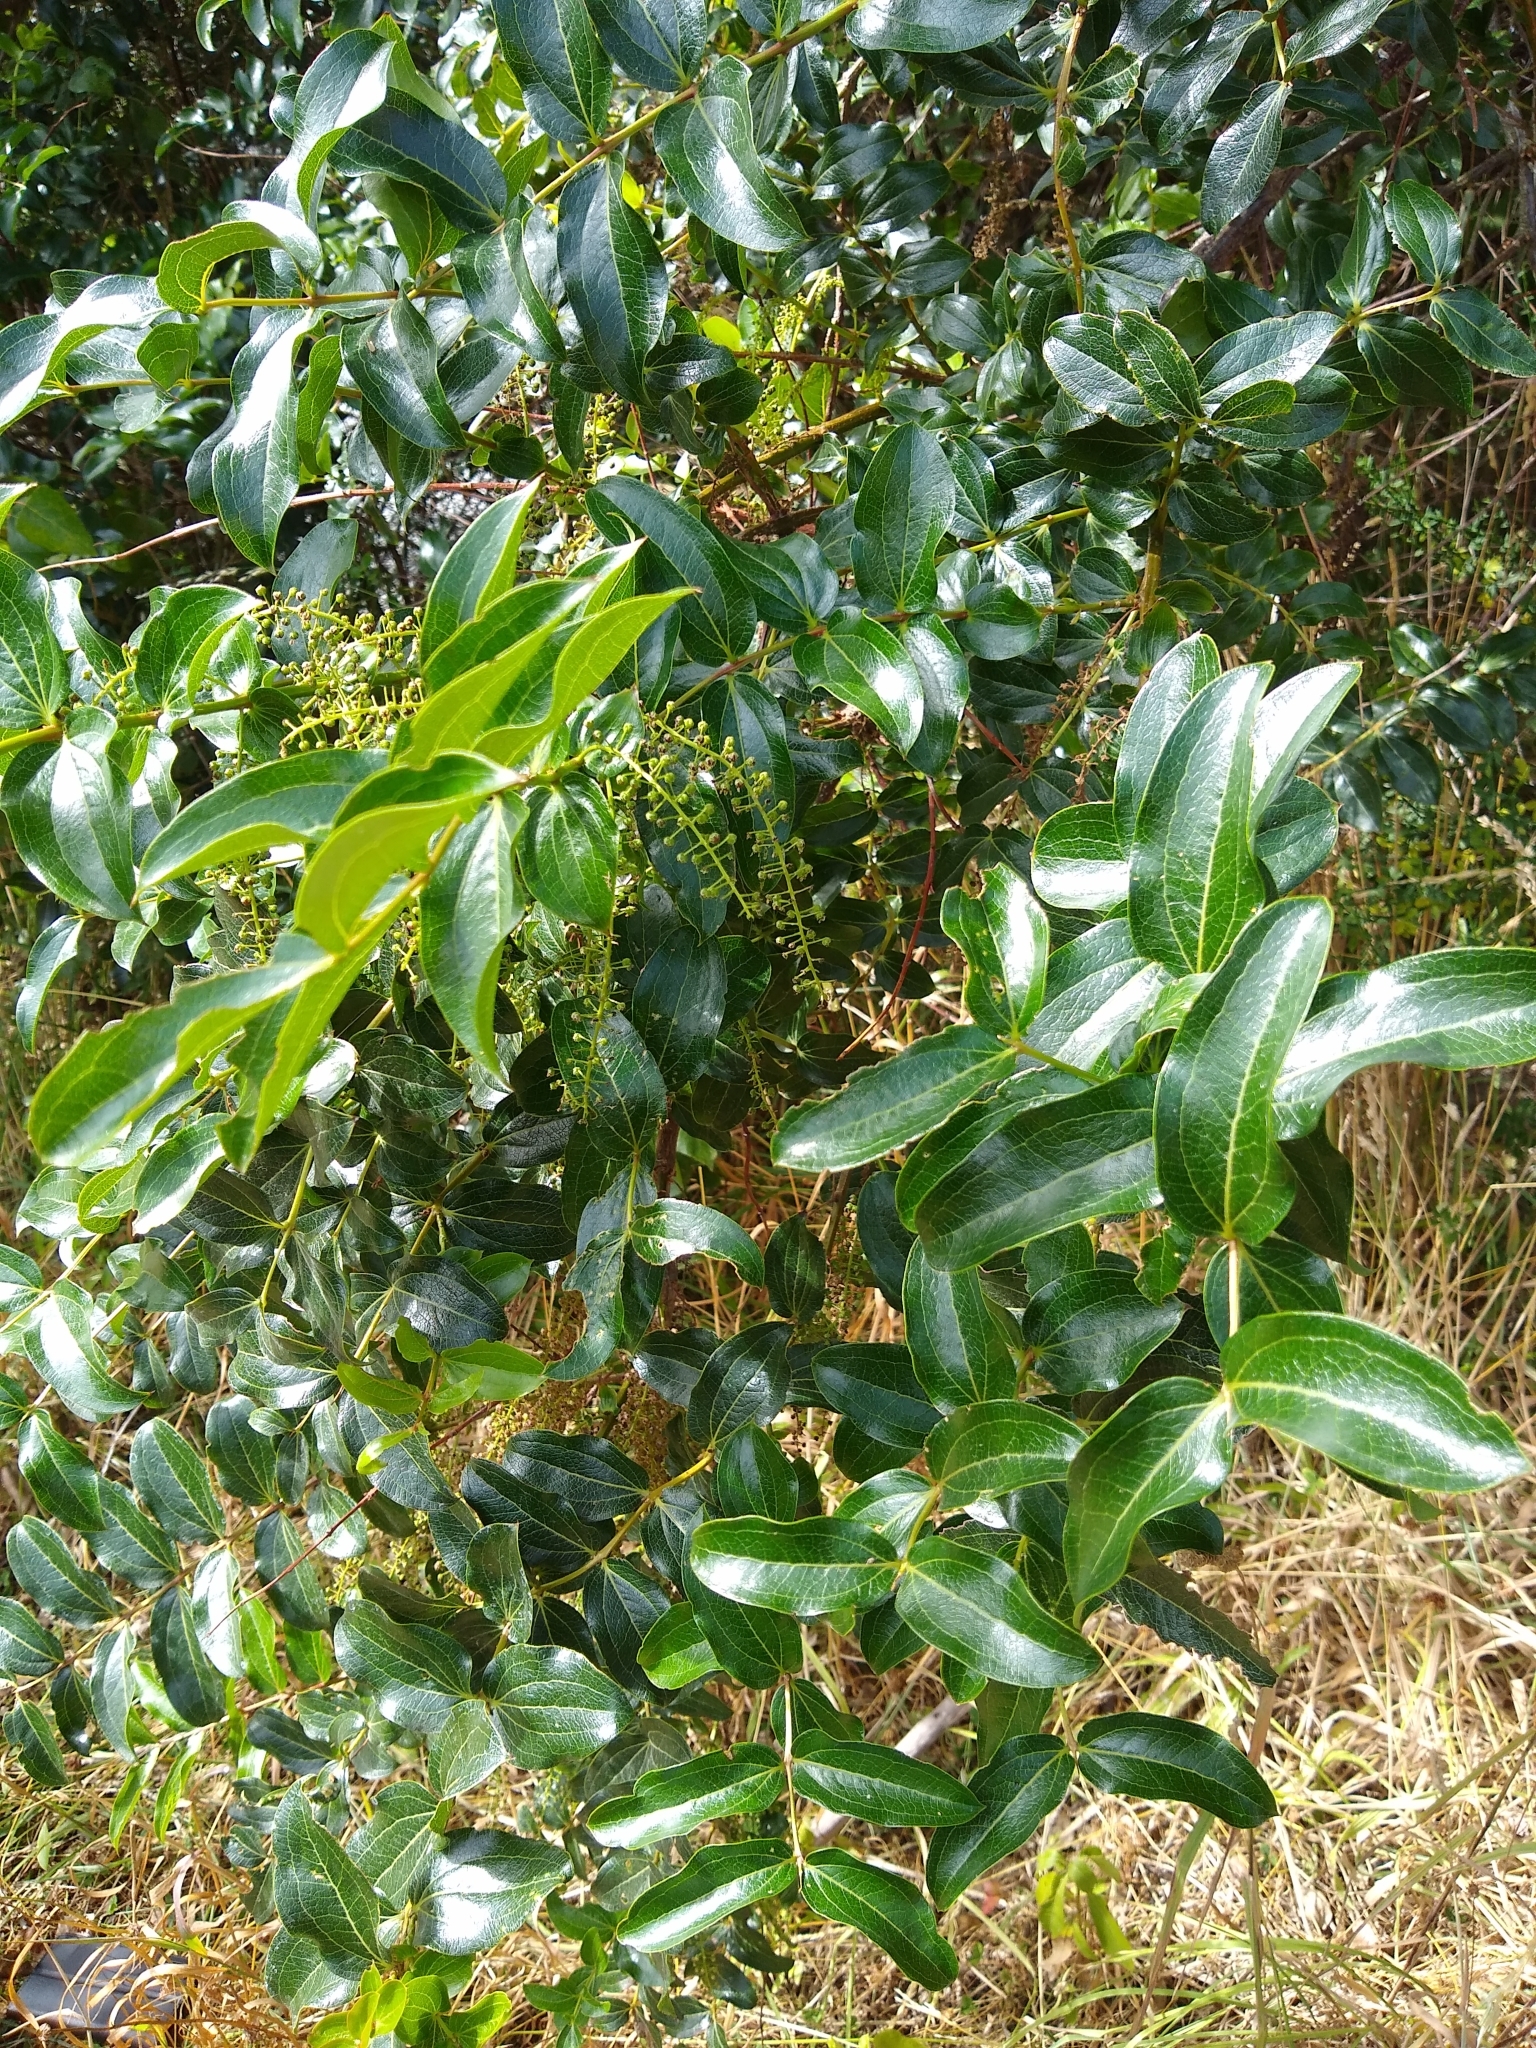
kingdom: Plantae
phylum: Tracheophyta
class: Magnoliopsida
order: Cucurbitales
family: Coriariaceae
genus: Coriaria
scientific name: Coriaria arborea
